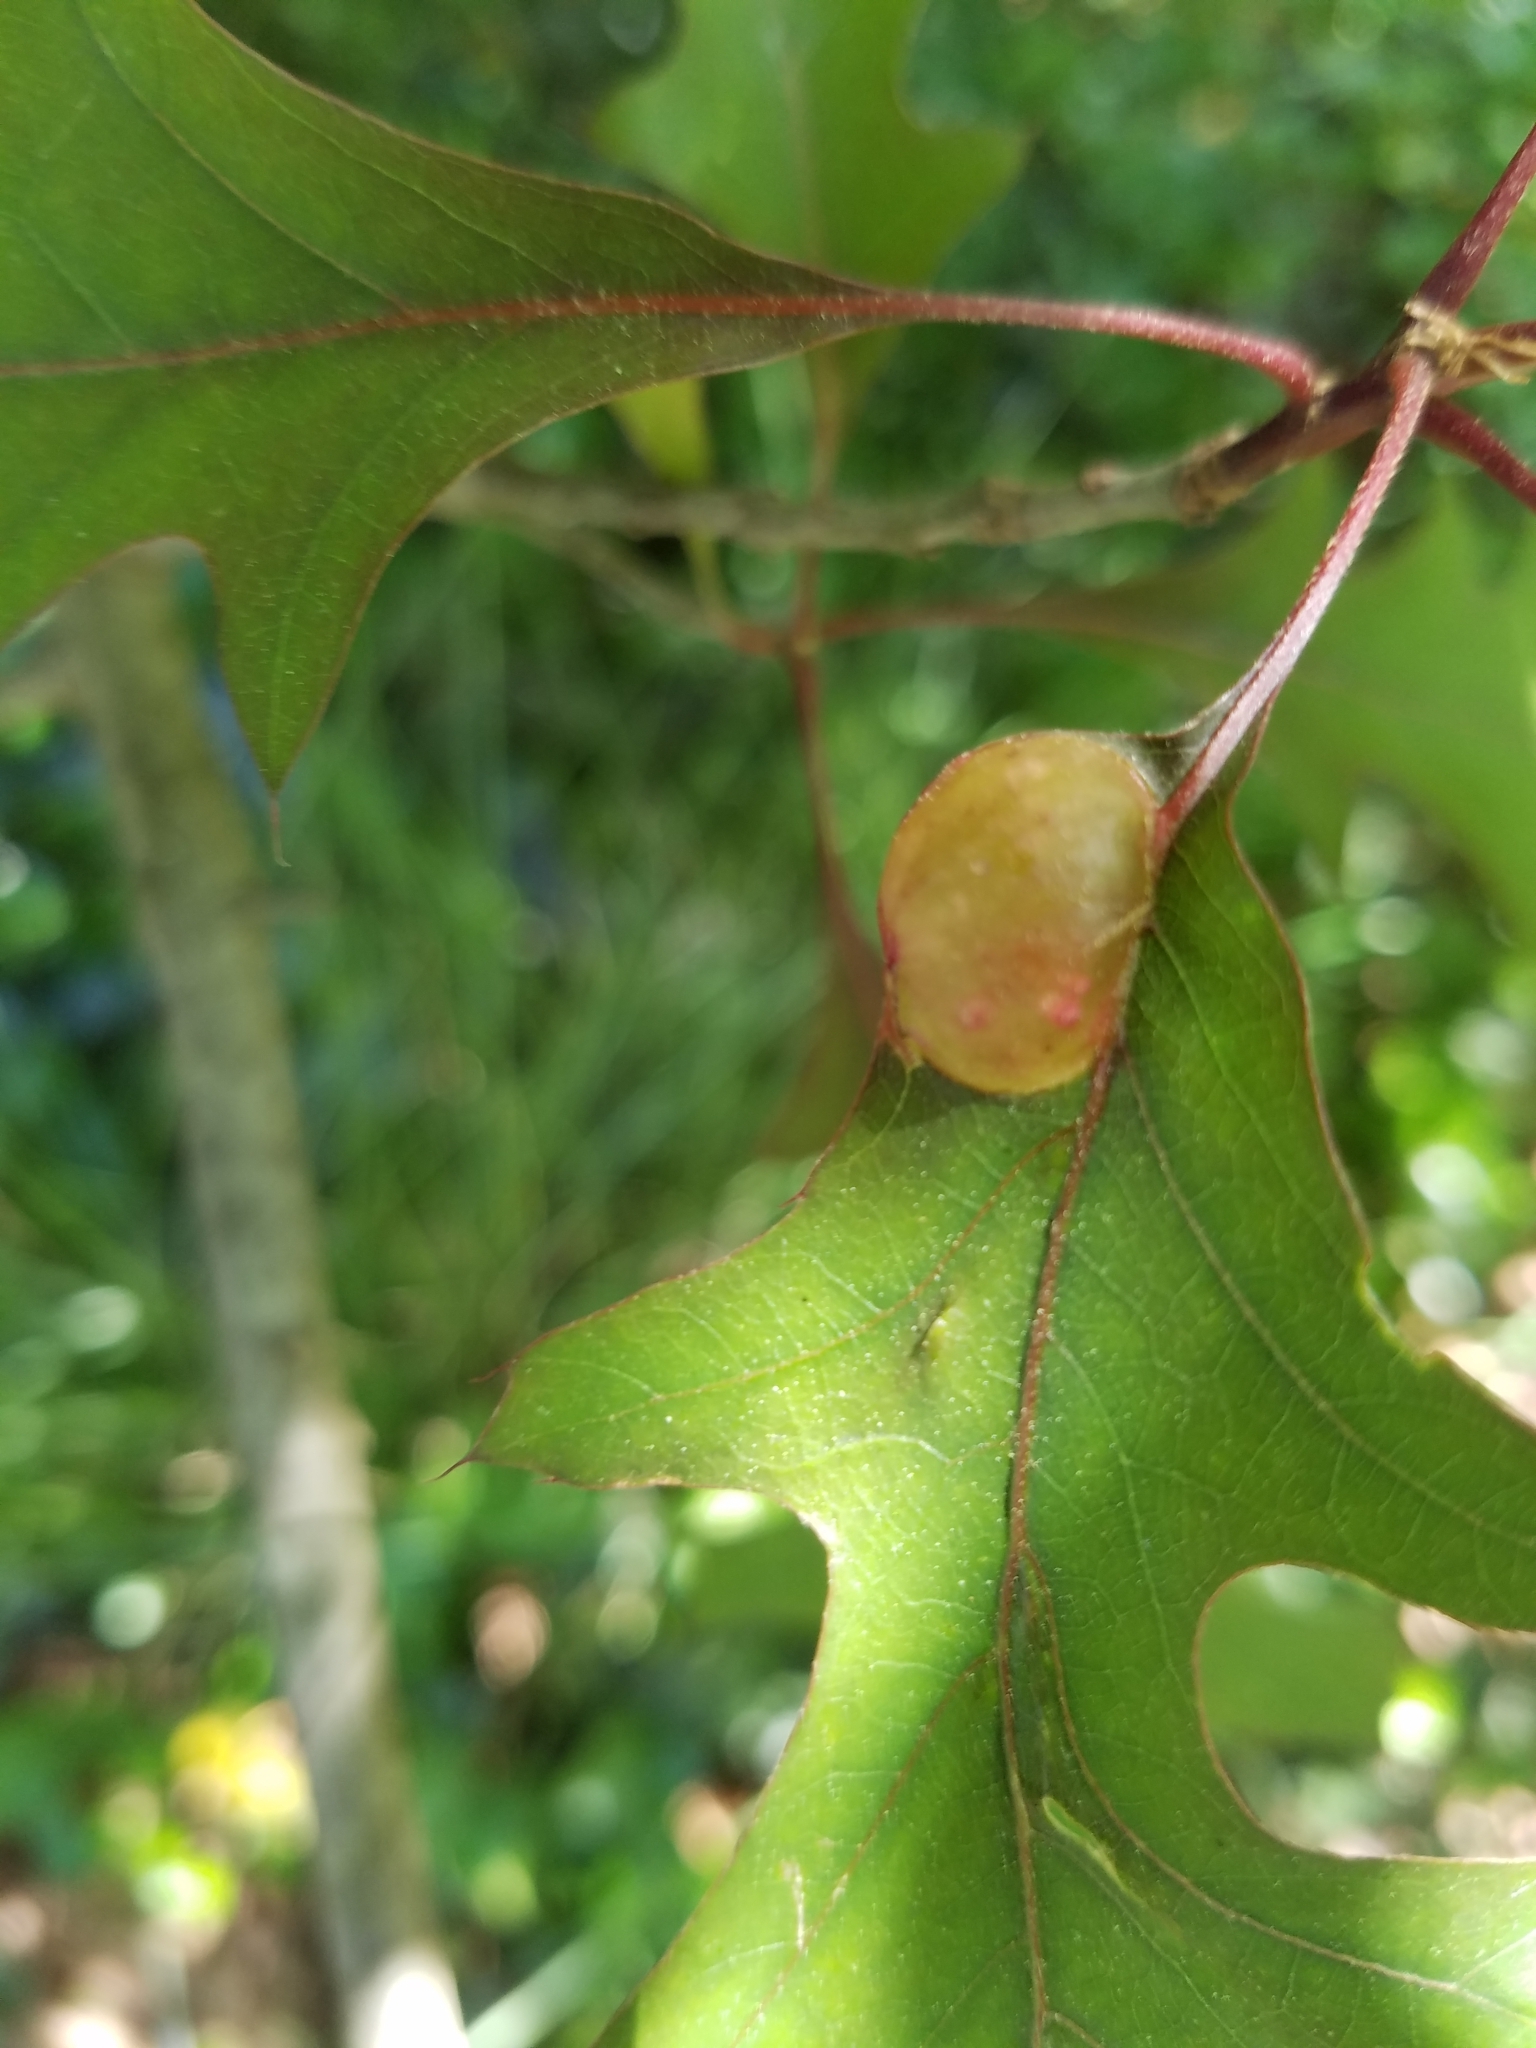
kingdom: Animalia
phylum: Arthropoda
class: Insecta
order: Hymenoptera
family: Cynipidae
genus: Dryocosmus
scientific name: Dryocosmus quercuspalustris
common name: Succulent oak gall wasp
